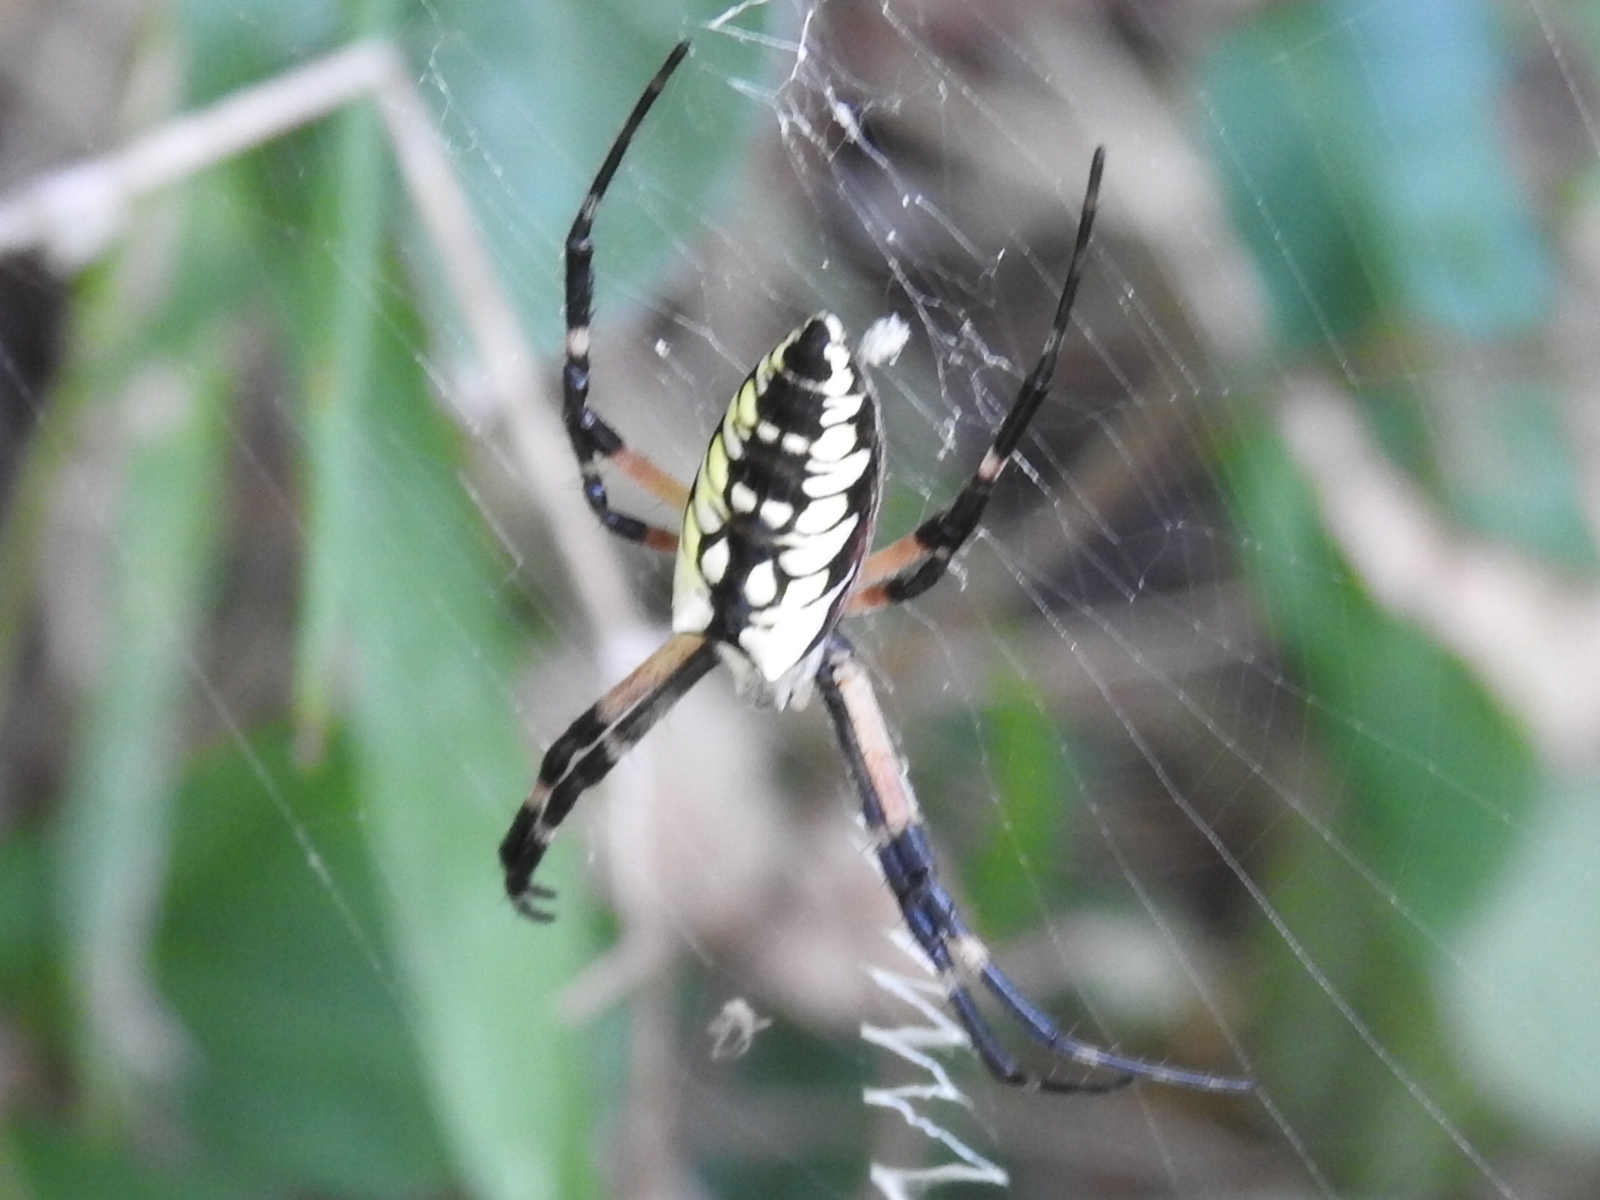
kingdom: Animalia
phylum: Arthropoda
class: Arachnida
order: Araneae
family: Araneidae
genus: Argiope
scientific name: Argiope aurantia
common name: Orb weavers
